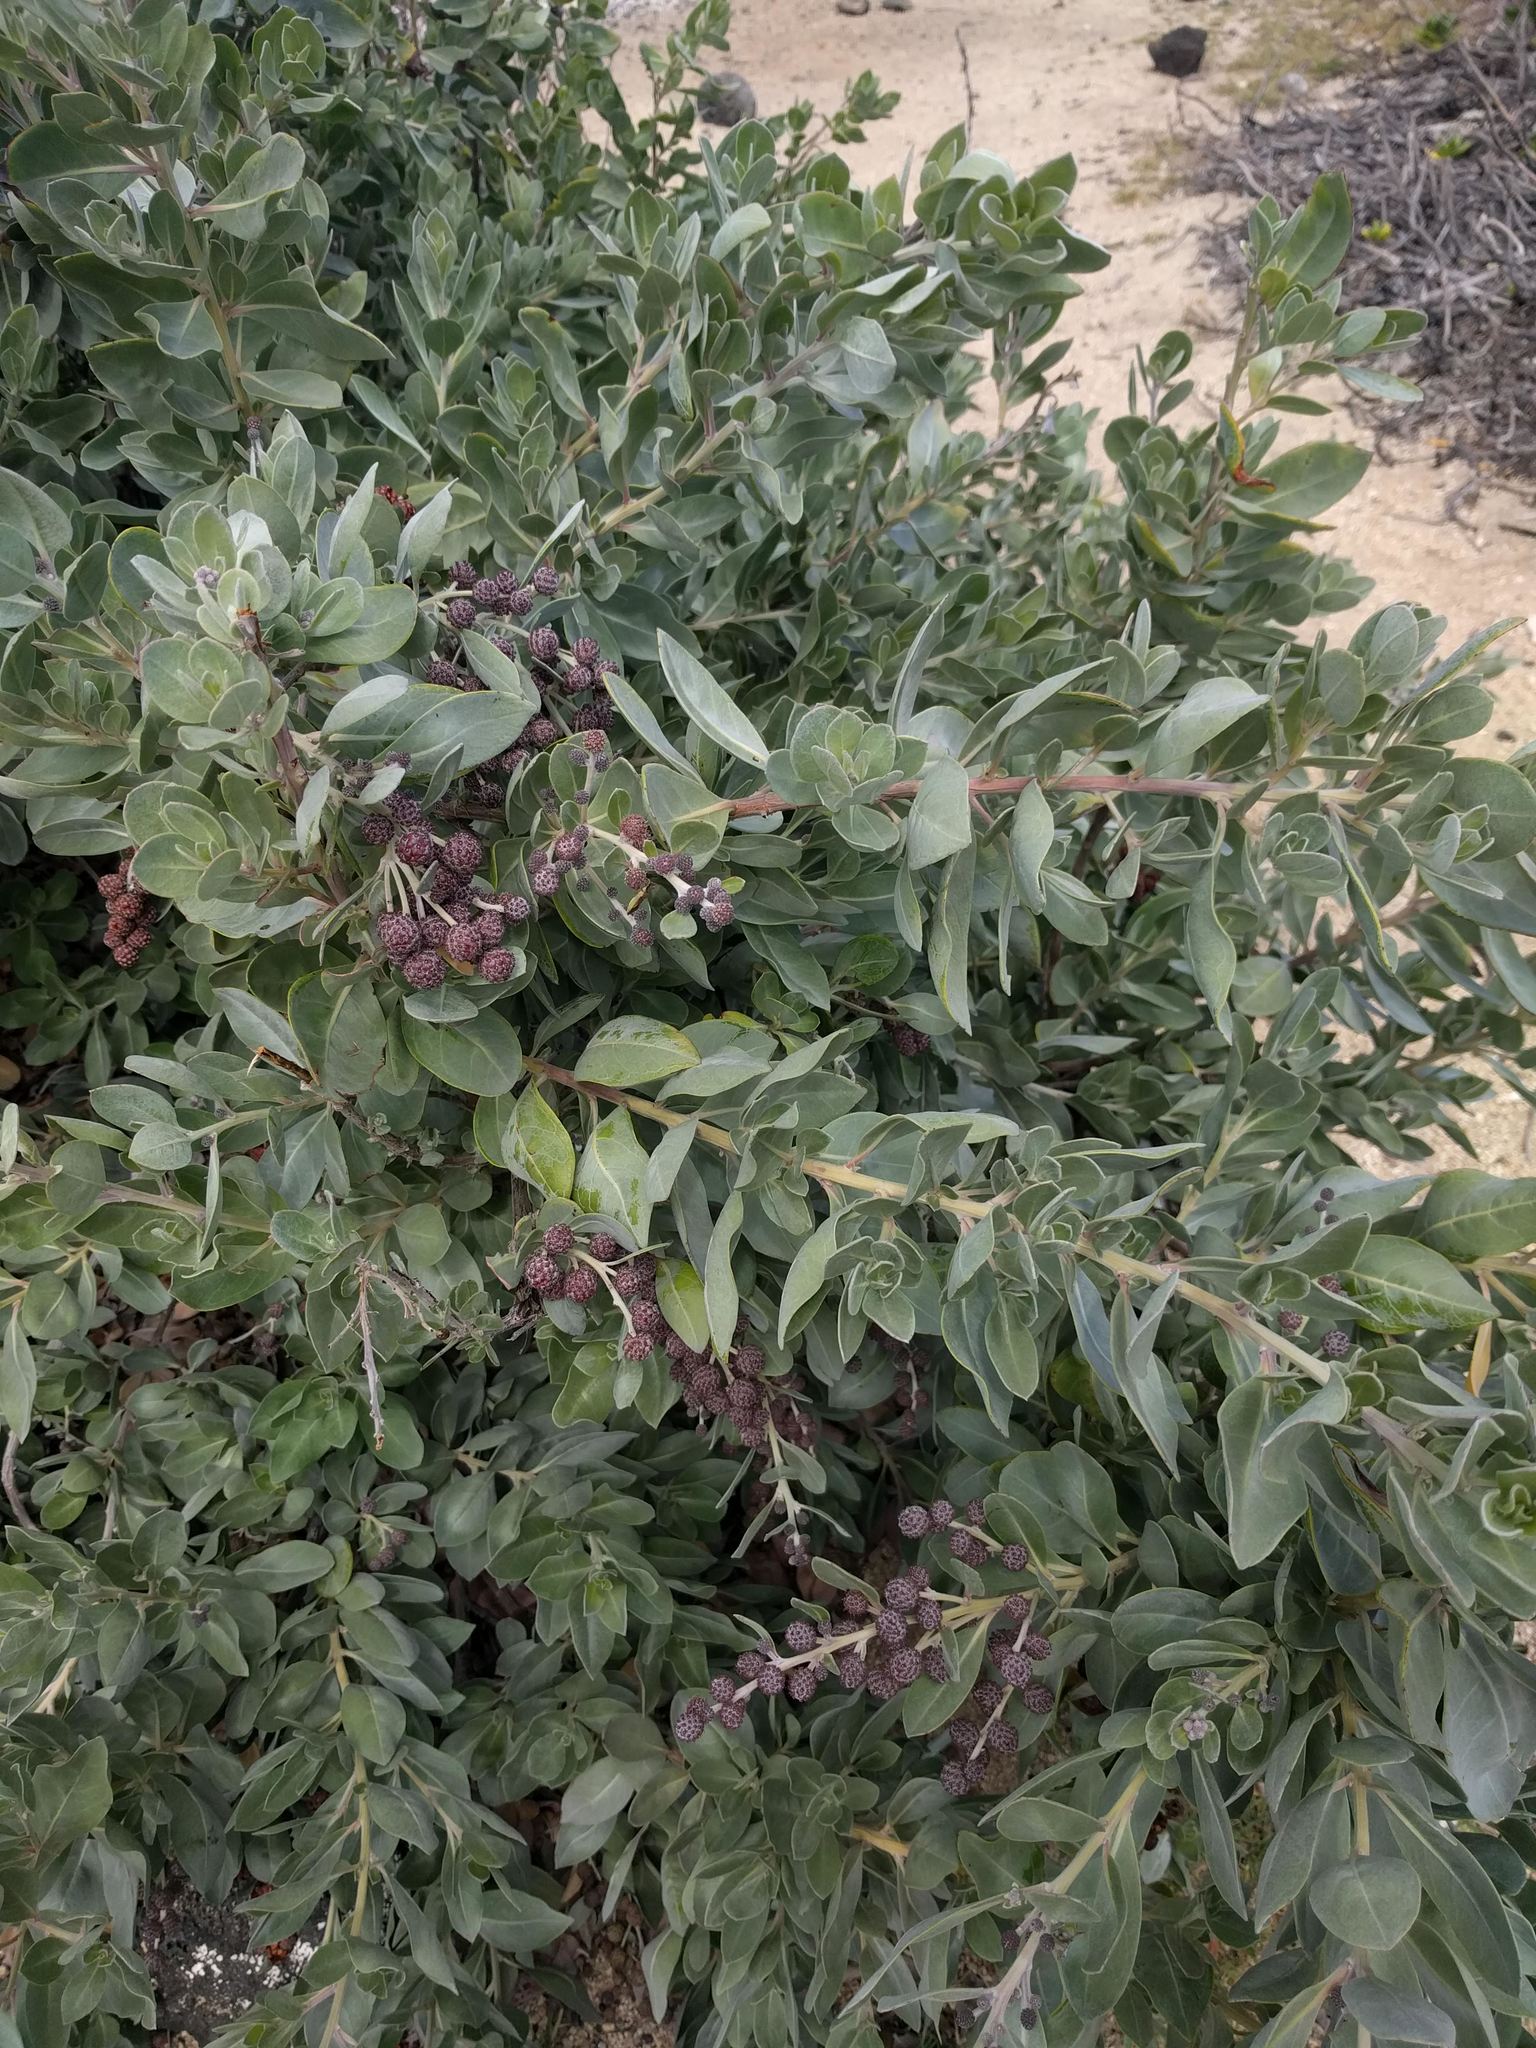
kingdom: Plantae
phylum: Tracheophyta
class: Magnoliopsida
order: Myrtales
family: Combretaceae
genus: Conocarpus
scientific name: Conocarpus erectus
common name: Button mangrove
